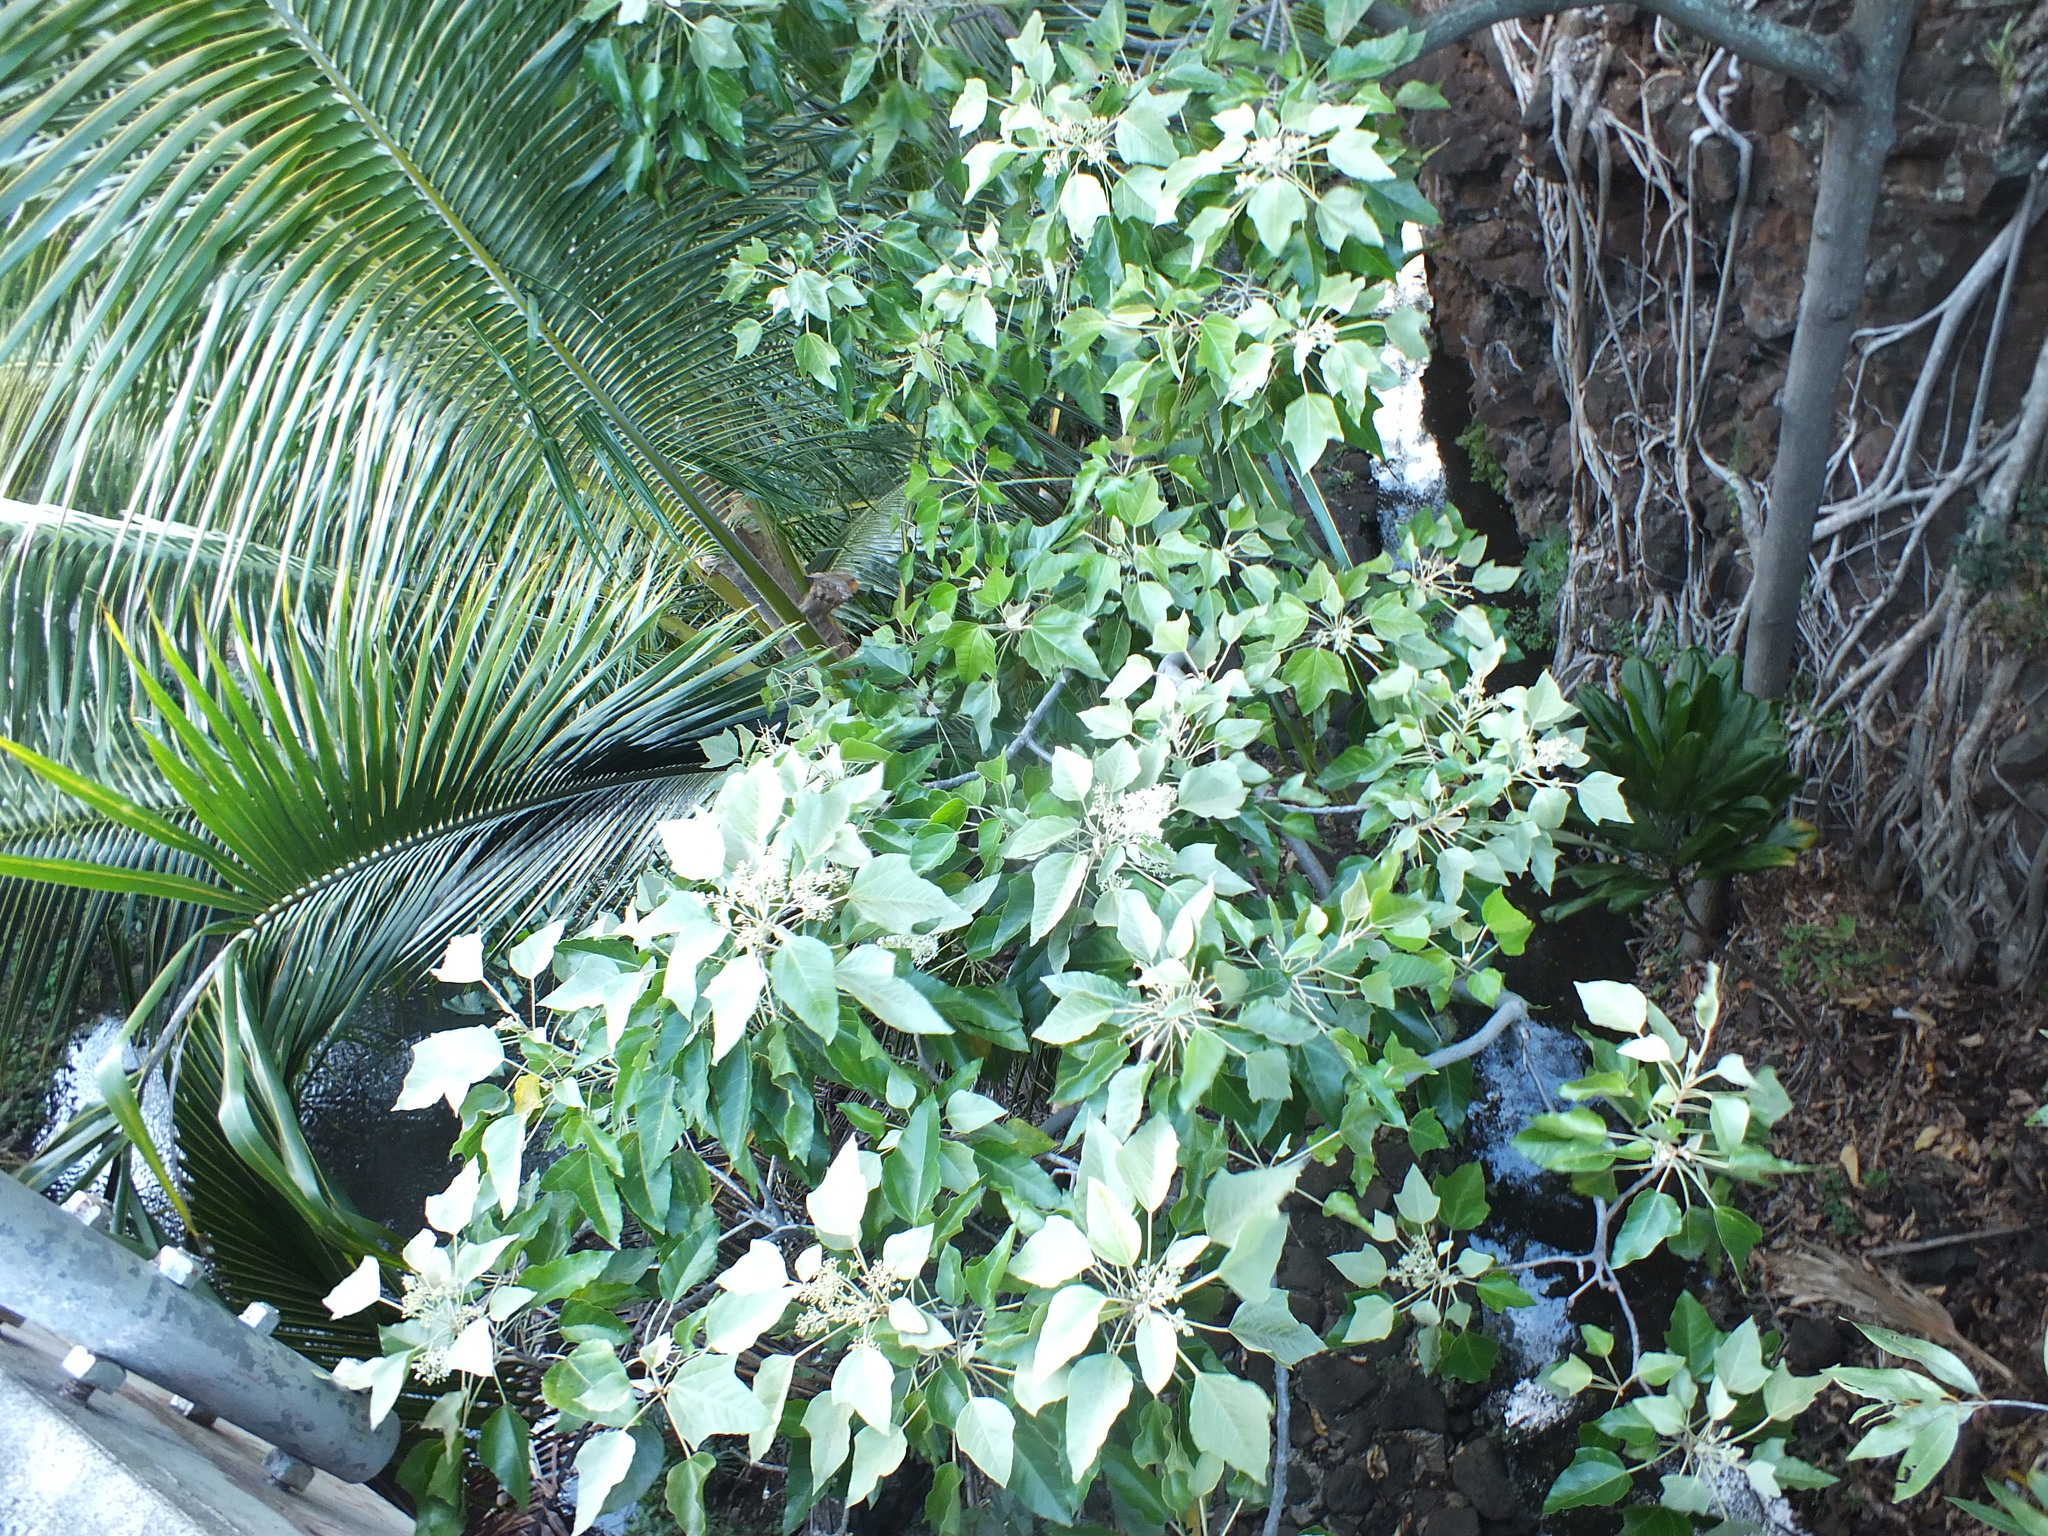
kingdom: Plantae
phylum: Tracheophyta
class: Magnoliopsida
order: Malpighiales
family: Euphorbiaceae
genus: Aleurites
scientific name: Aleurites moluccanus
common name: Candlenut tree
